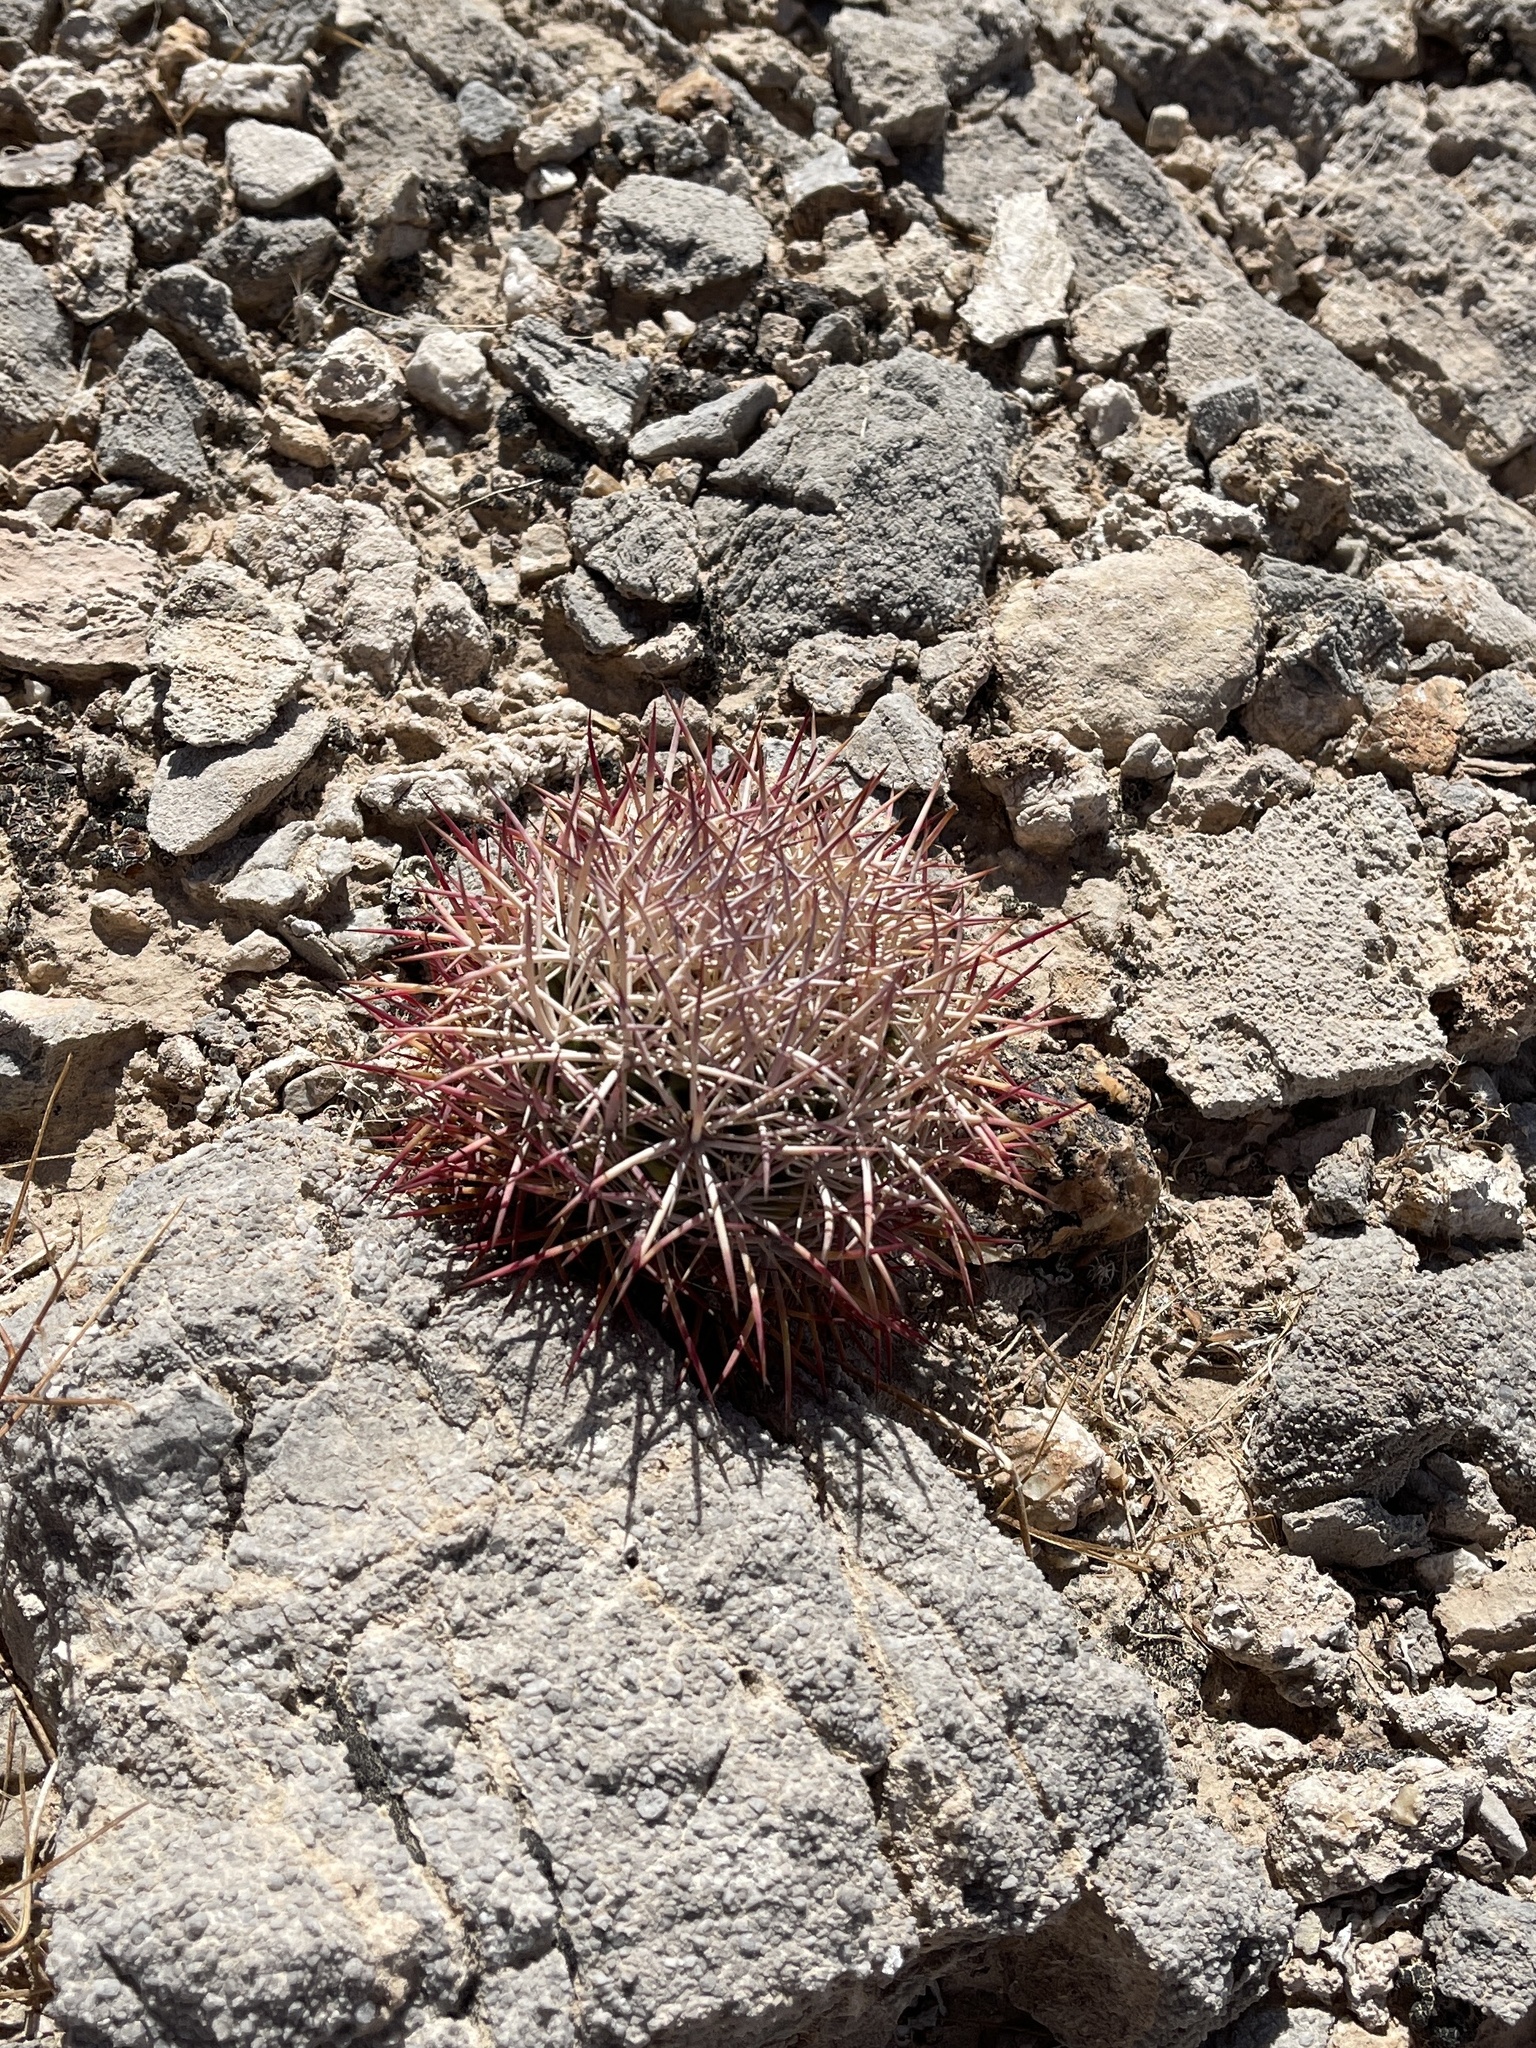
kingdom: Plantae
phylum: Tracheophyta
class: Magnoliopsida
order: Caryophyllales
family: Cactaceae
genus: Ferocactus
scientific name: Ferocactus cylindraceus
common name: California barrel cactus
